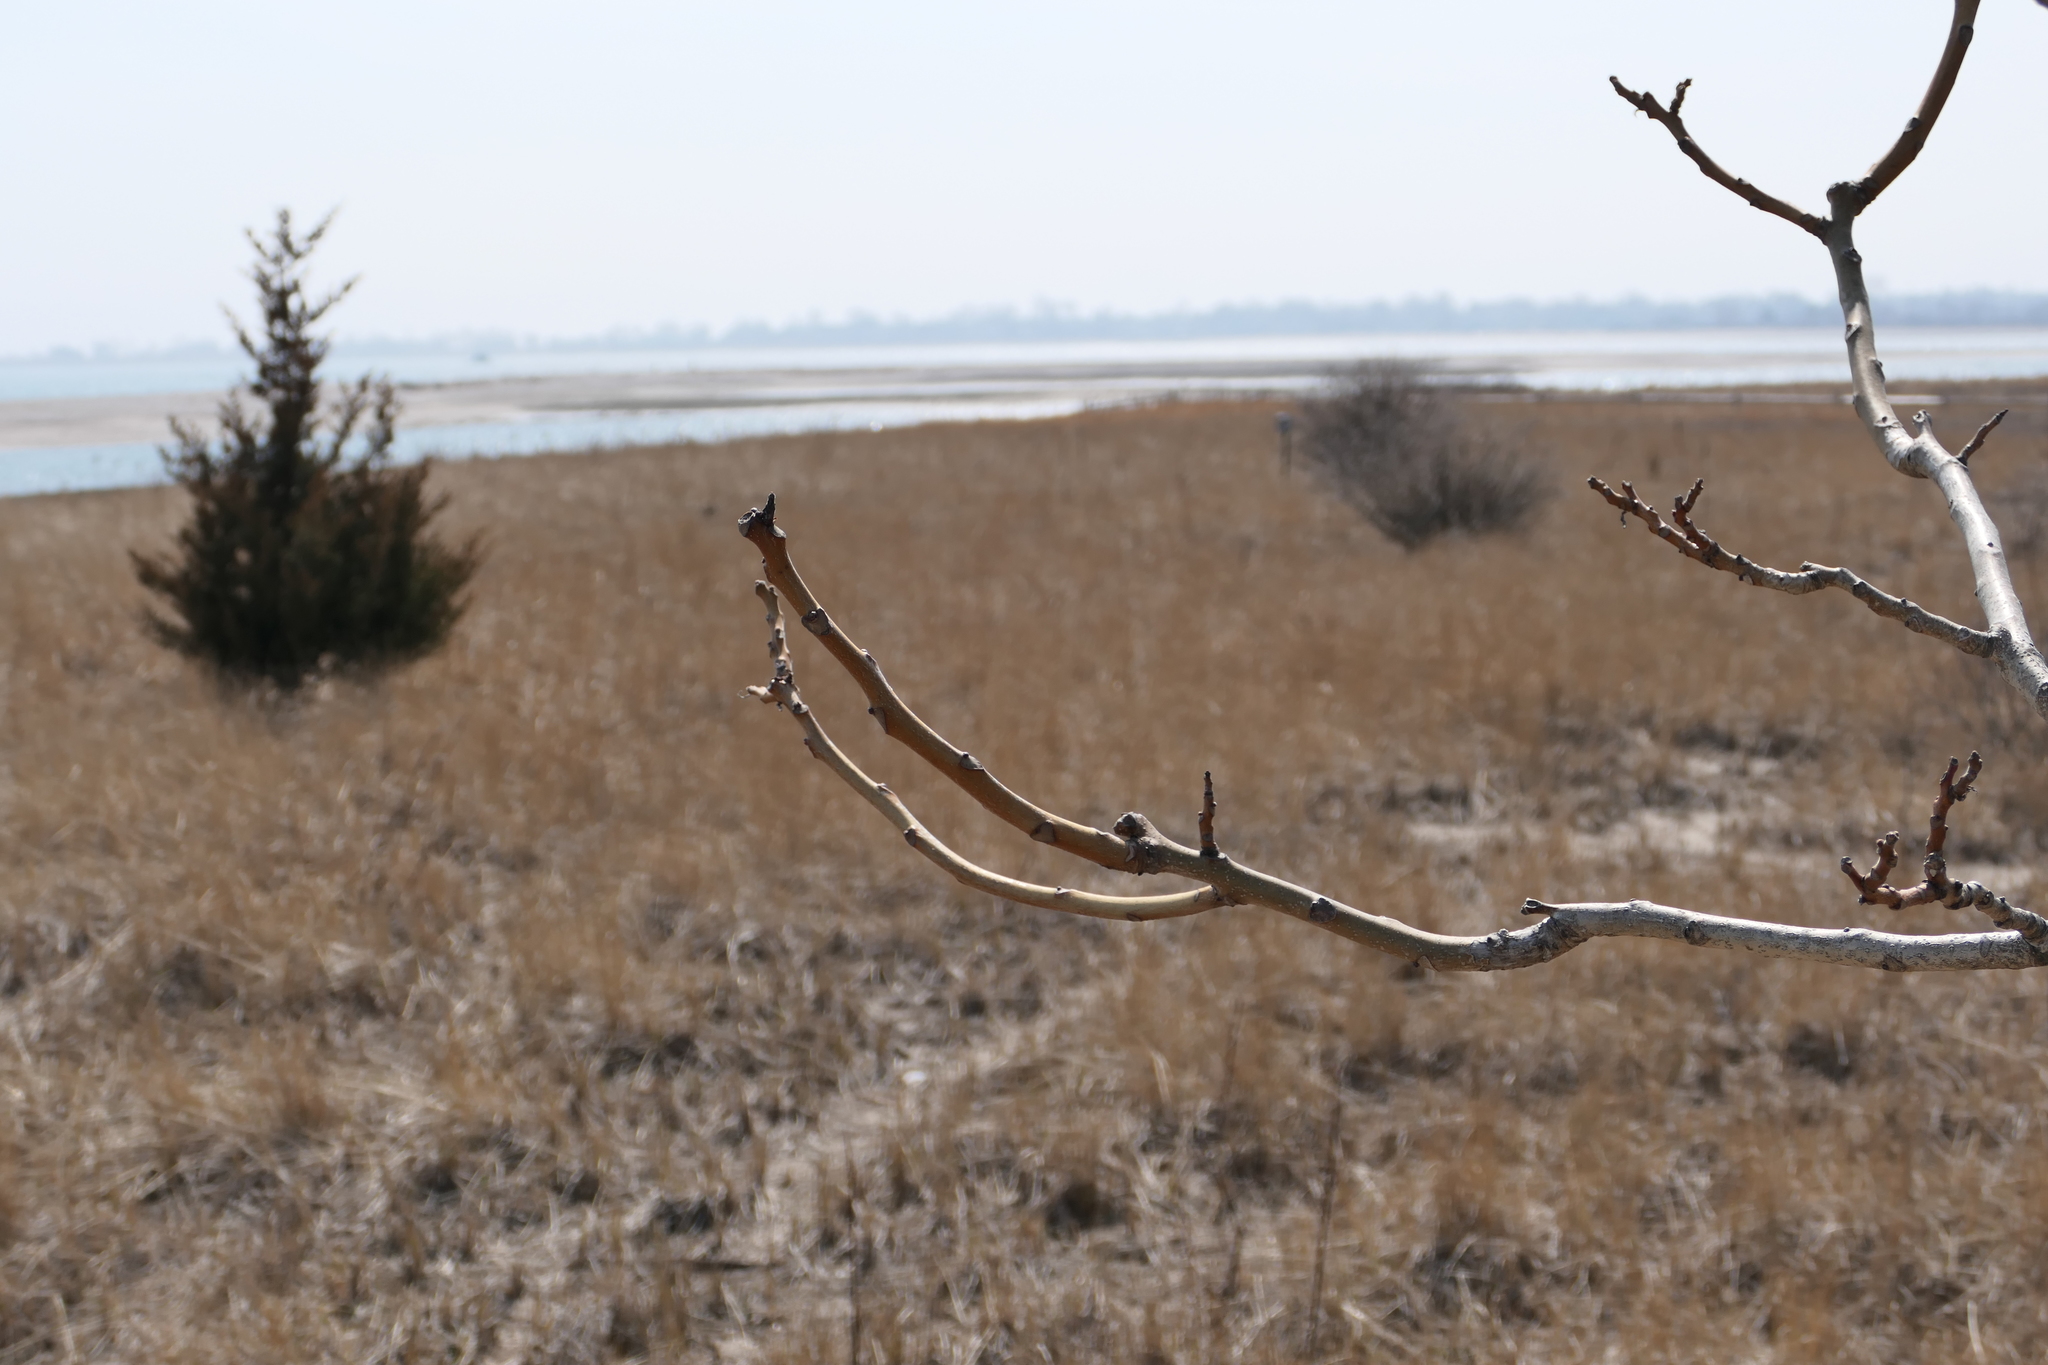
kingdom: Plantae
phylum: Tracheophyta
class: Magnoliopsida
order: Sapindales
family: Simaroubaceae
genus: Ailanthus
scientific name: Ailanthus altissima
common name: Tree-of-heaven
